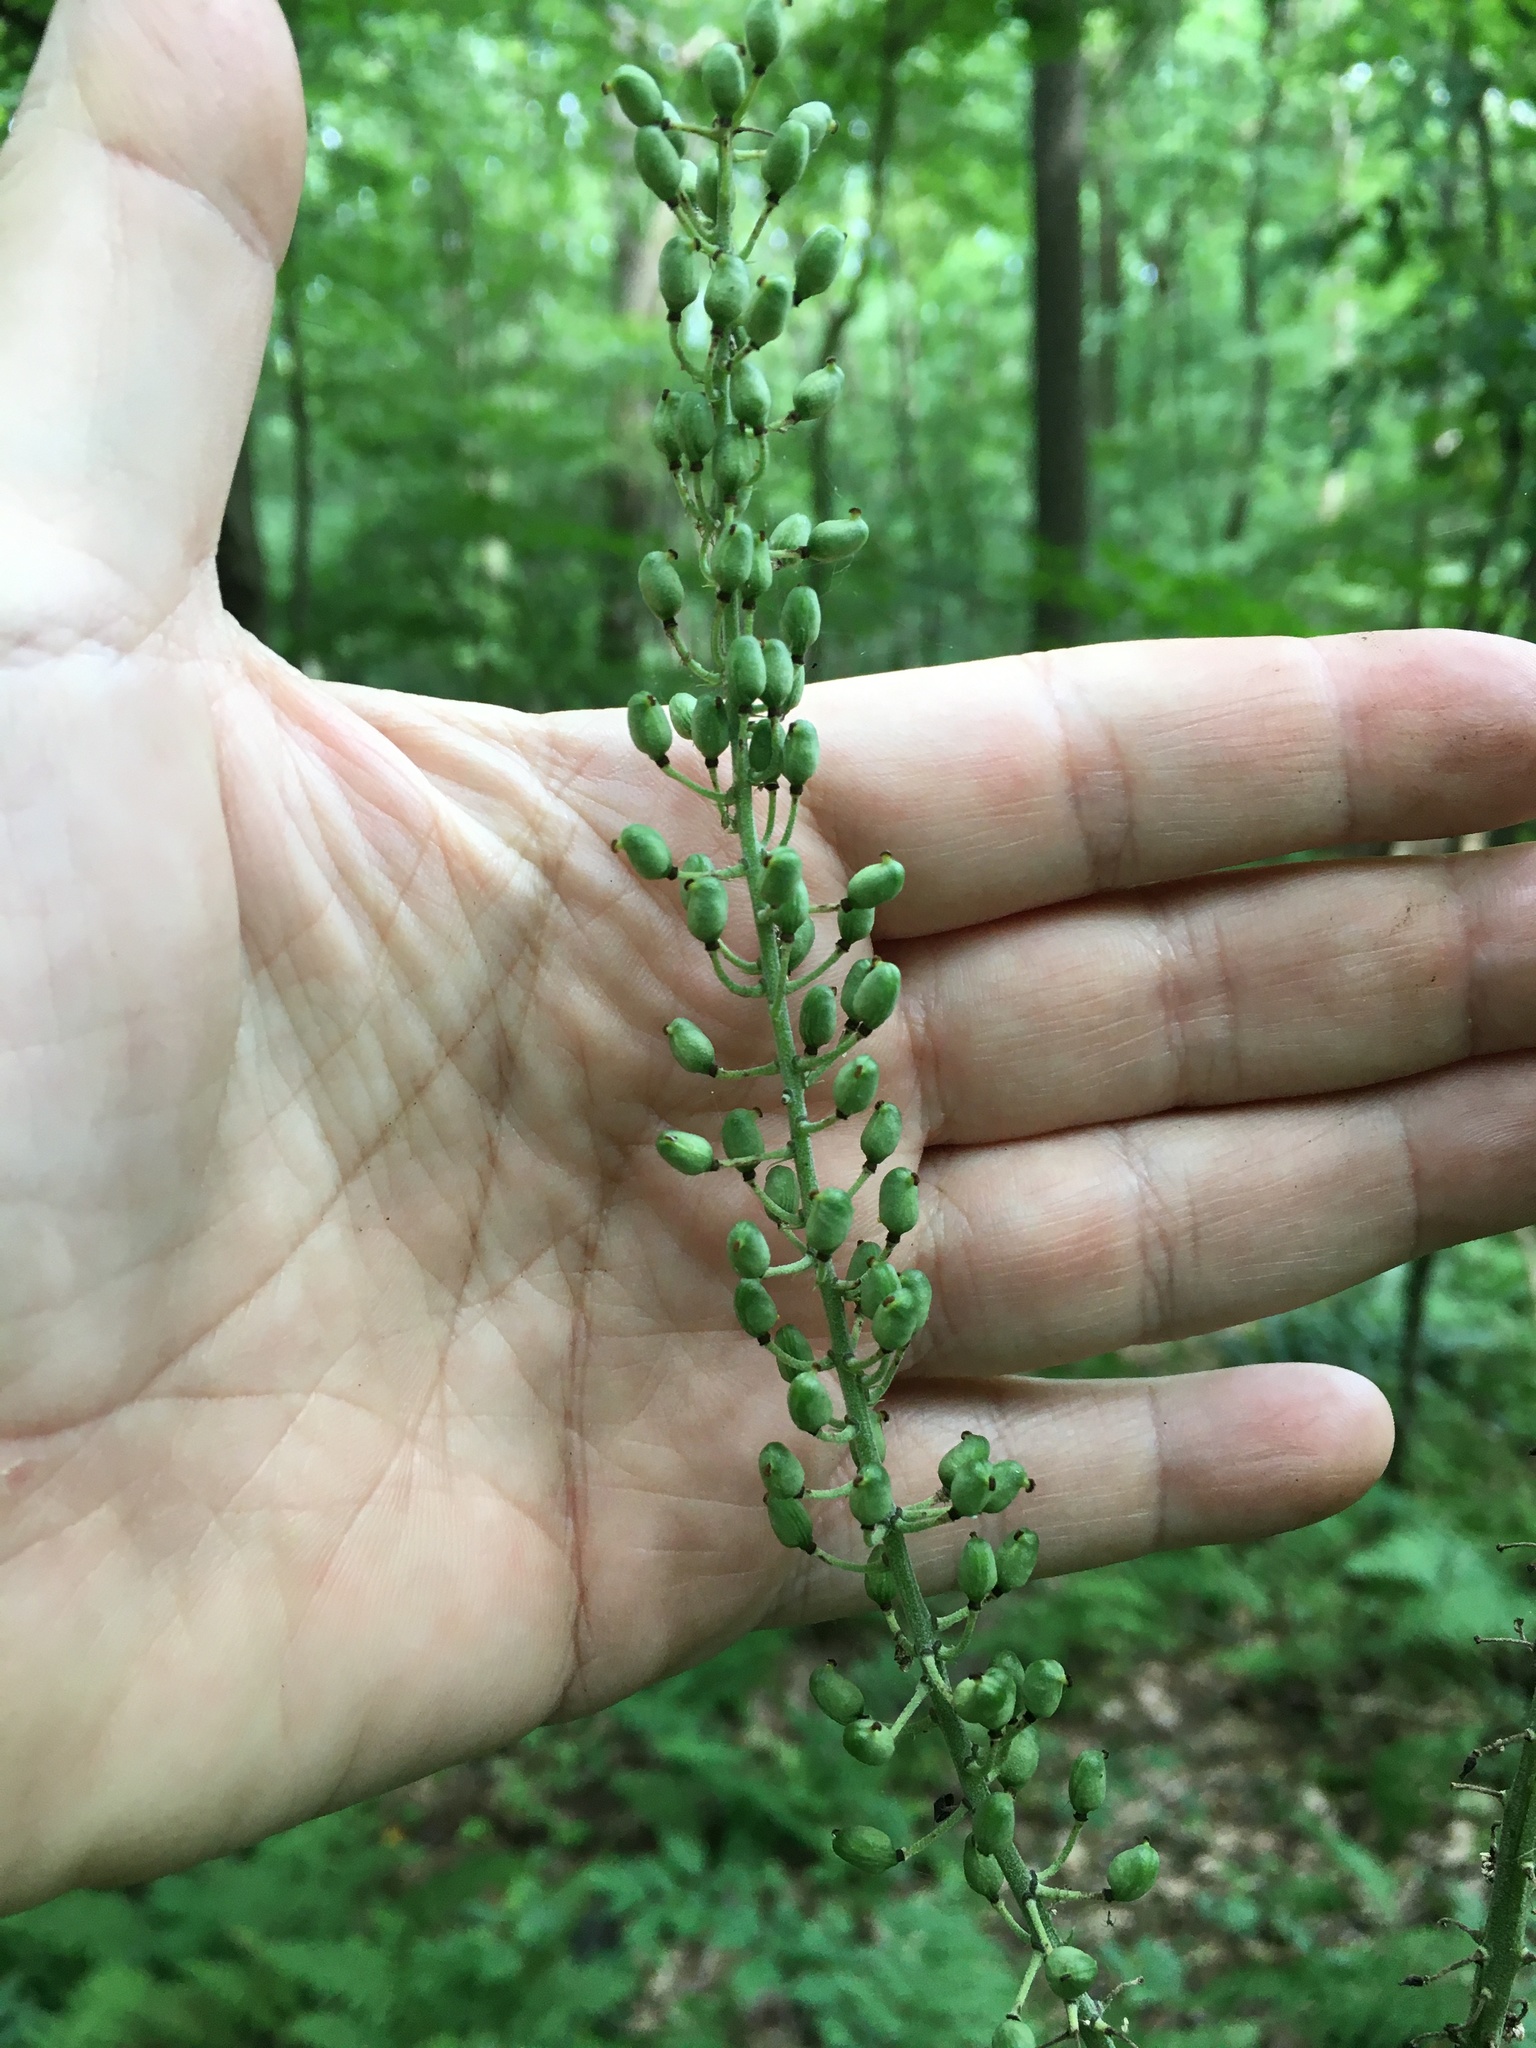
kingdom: Plantae
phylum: Tracheophyta
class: Magnoliopsida
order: Ranunculales
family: Ranunculaceae
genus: Actaea
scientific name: Actaea racemosa
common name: Black cohosh
